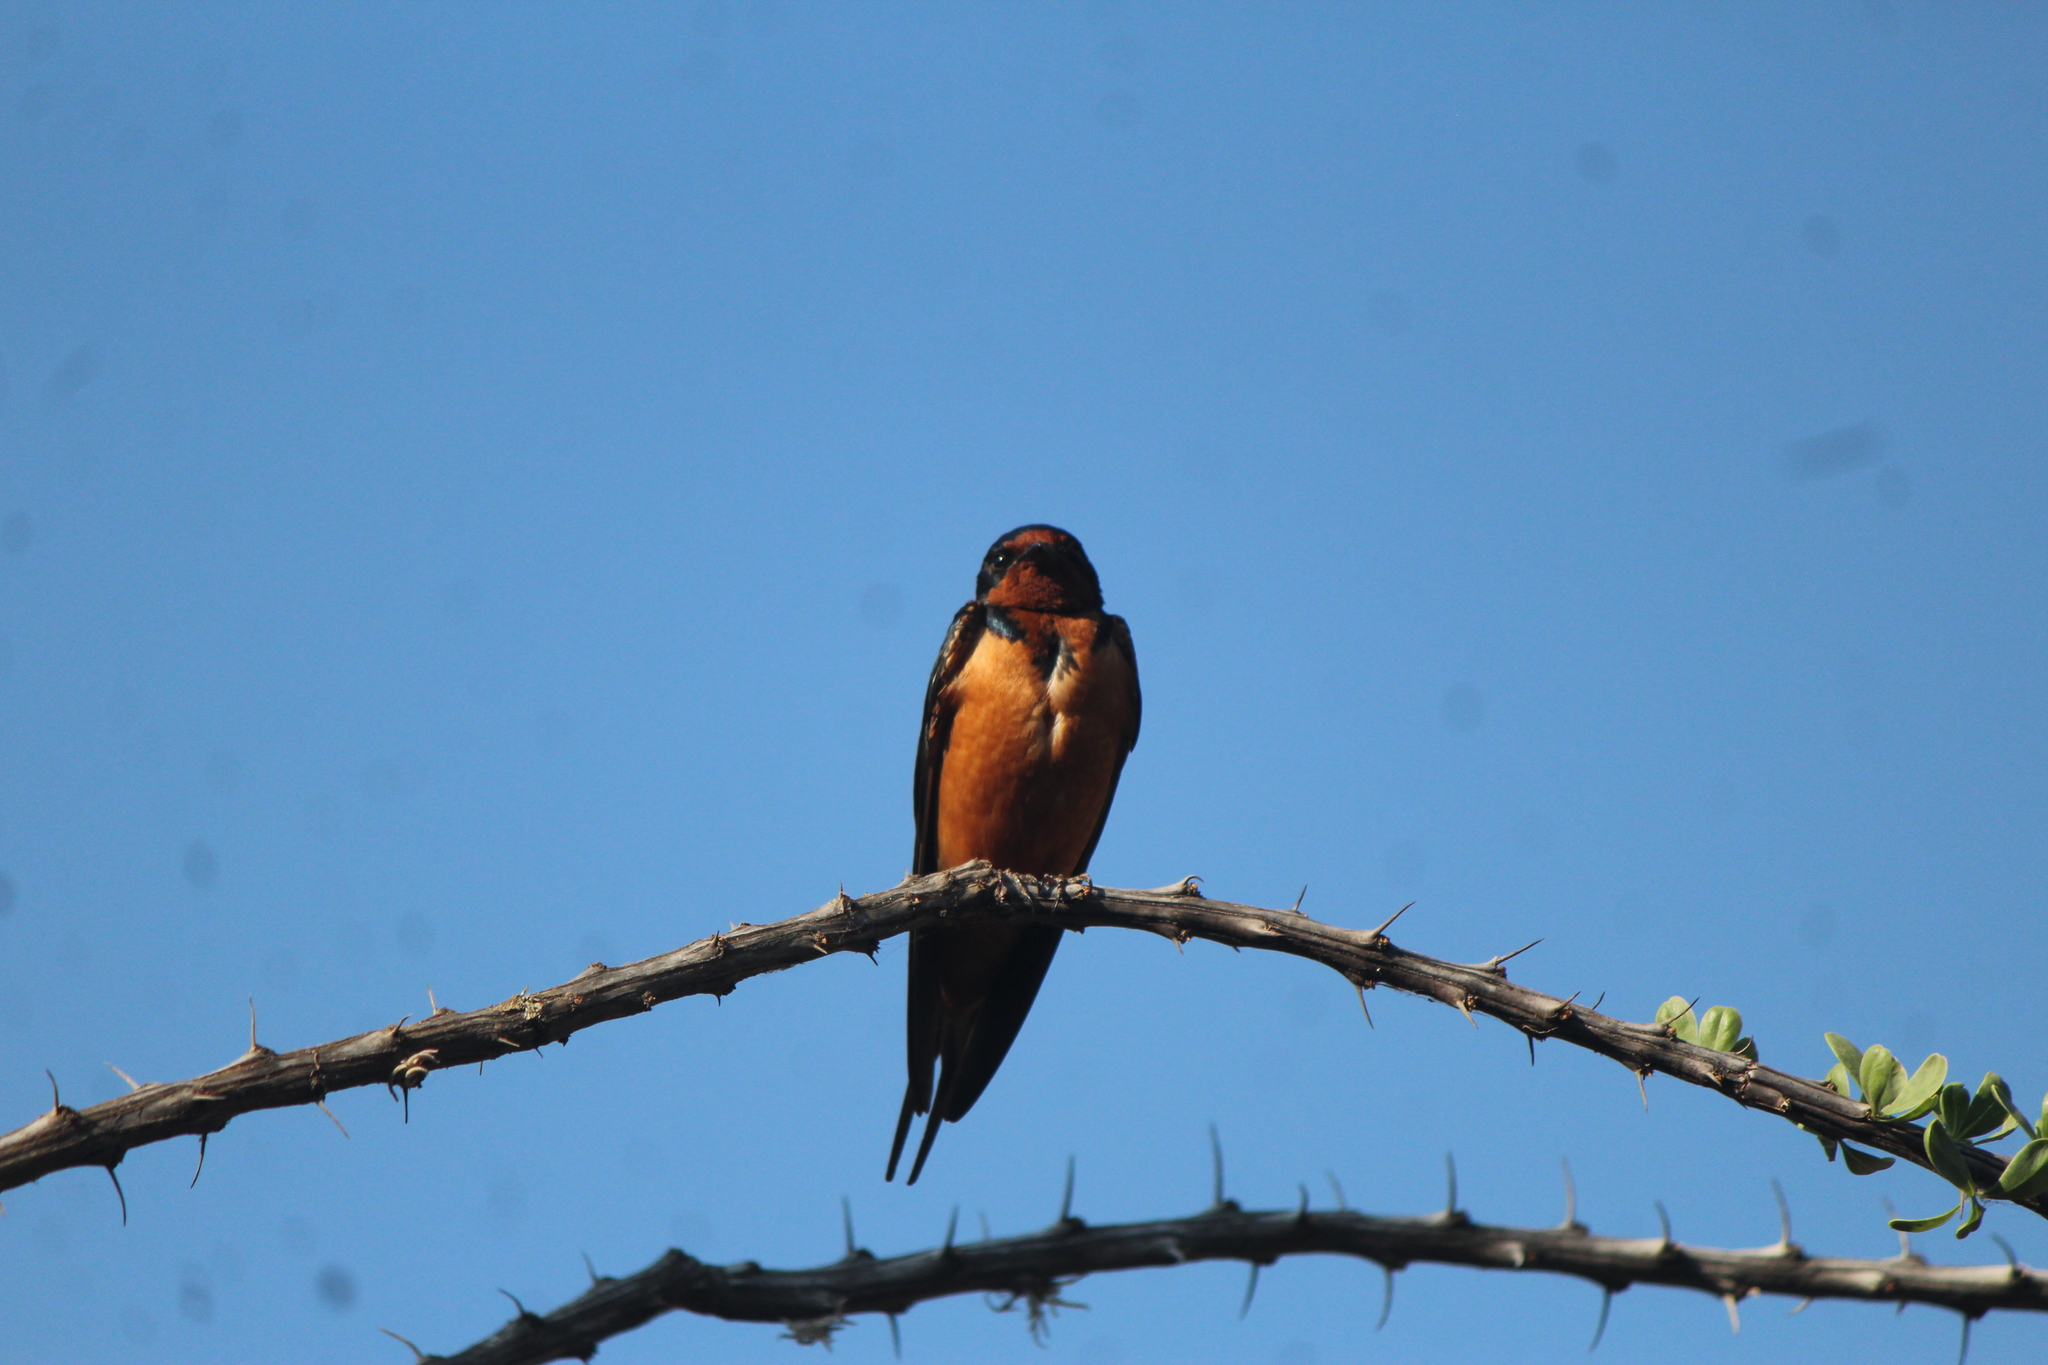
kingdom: Animalia
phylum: Chordata
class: Aves
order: Passeriformes
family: Hirundinidae
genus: Hirundo
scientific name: Hirundo rustica
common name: Barn swallow
